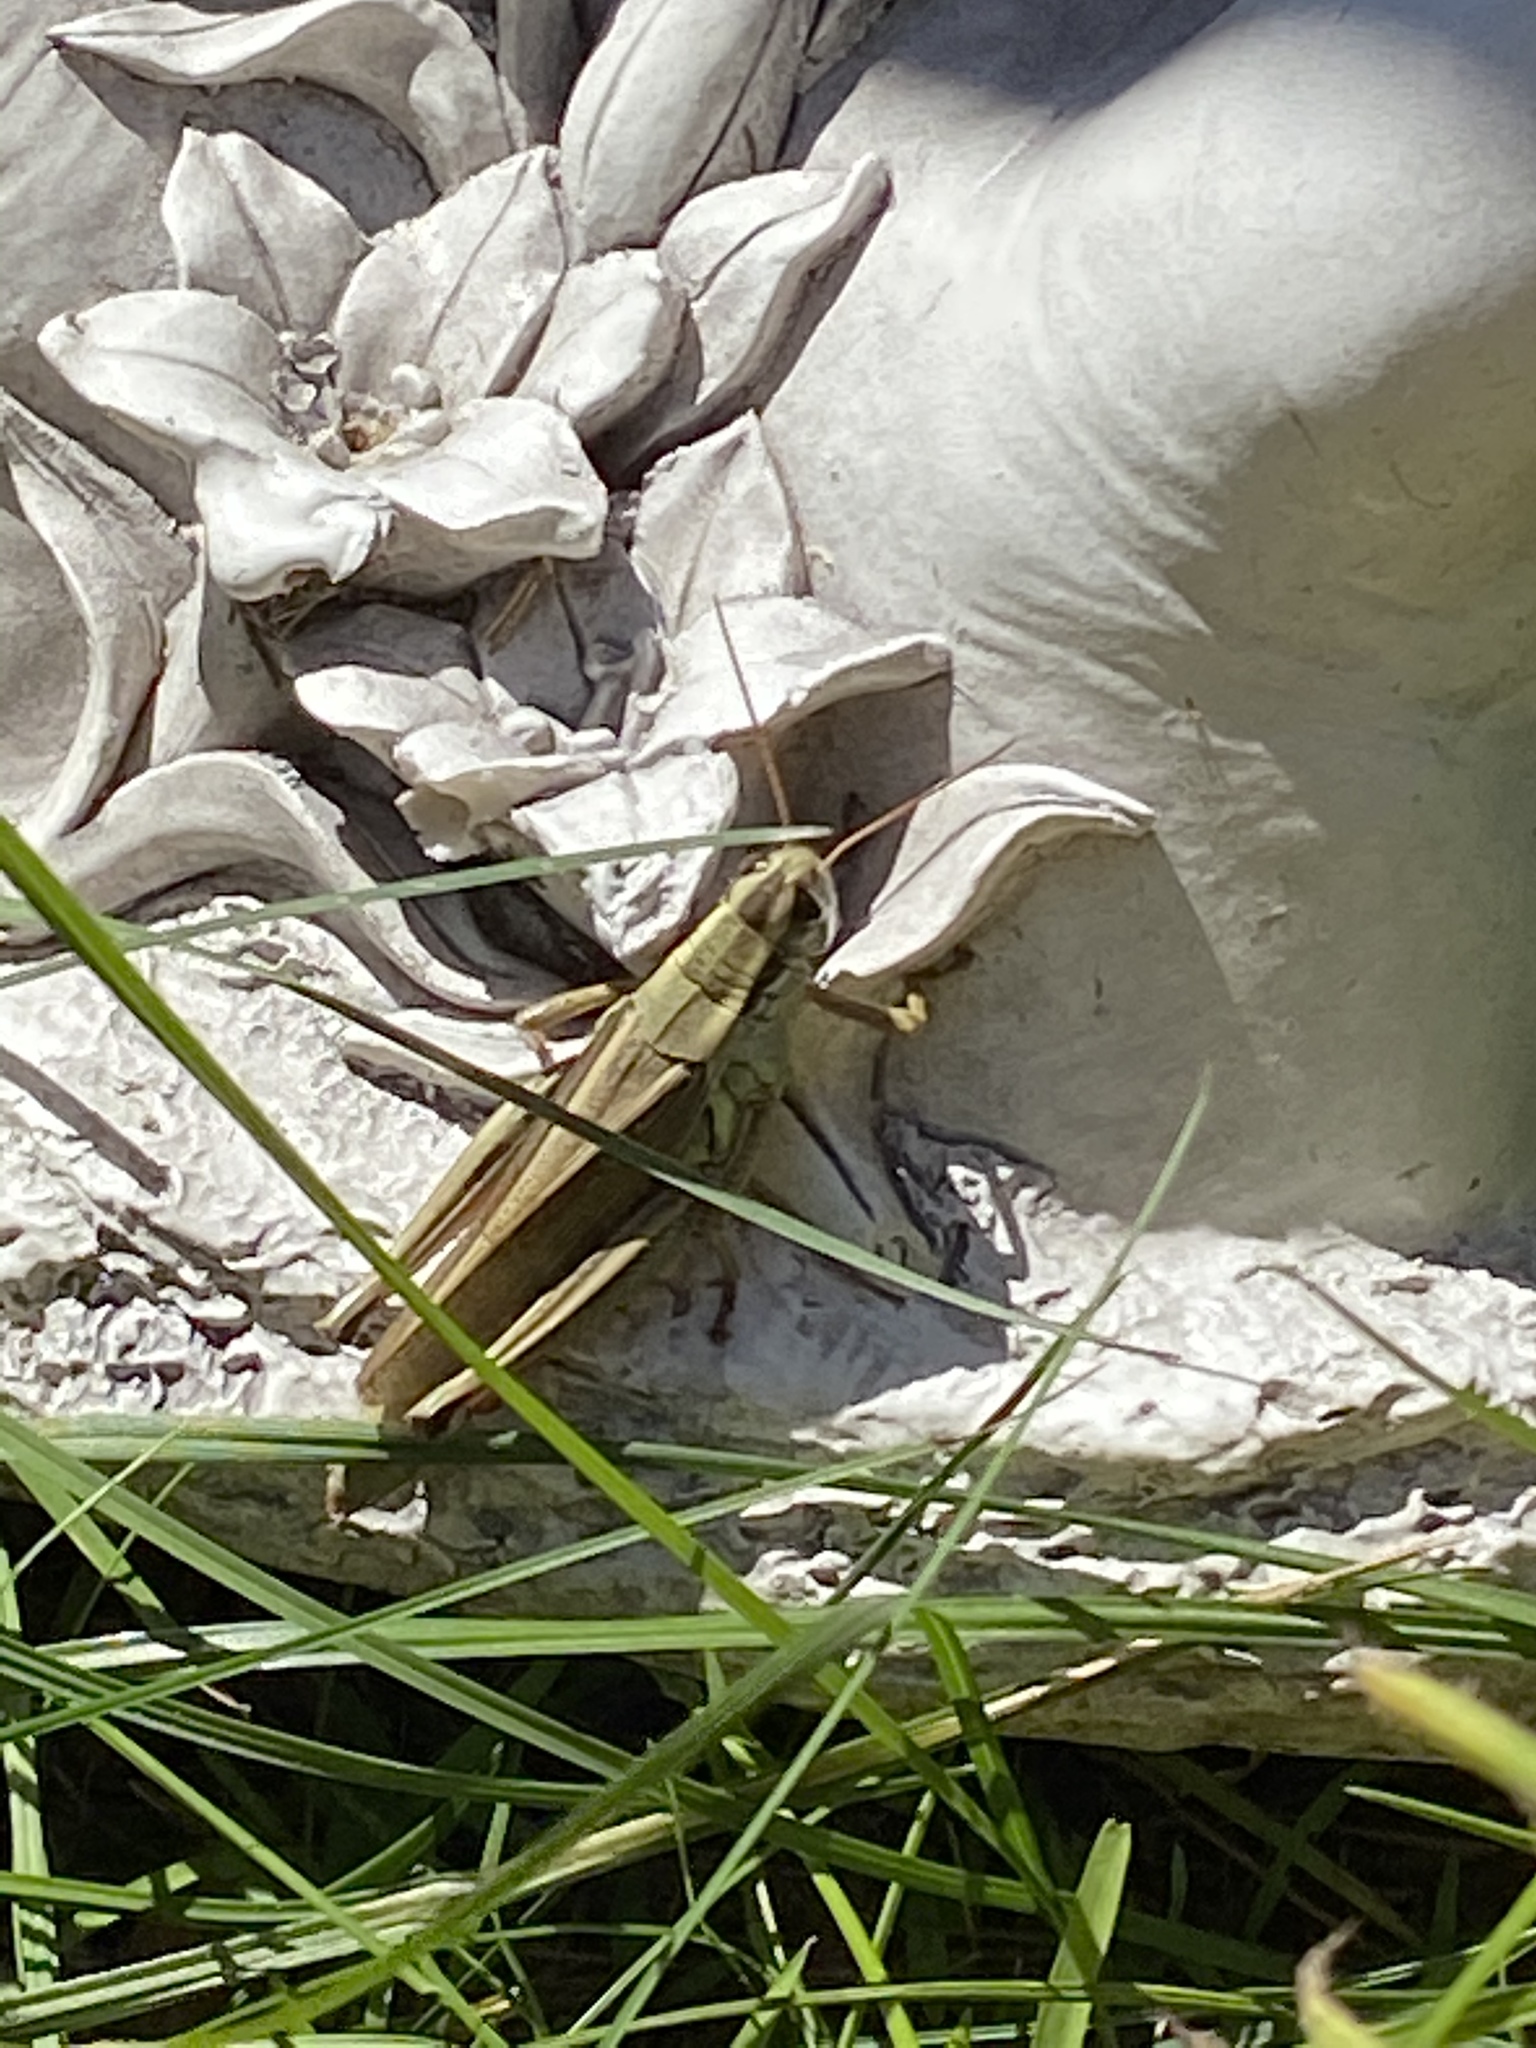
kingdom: Animalia
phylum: Arthropoda
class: Insecta
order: Orthoptera
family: Acrididae
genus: Melanoplus
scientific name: Melanoplus bivittatus
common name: Two-striped grasshopper
